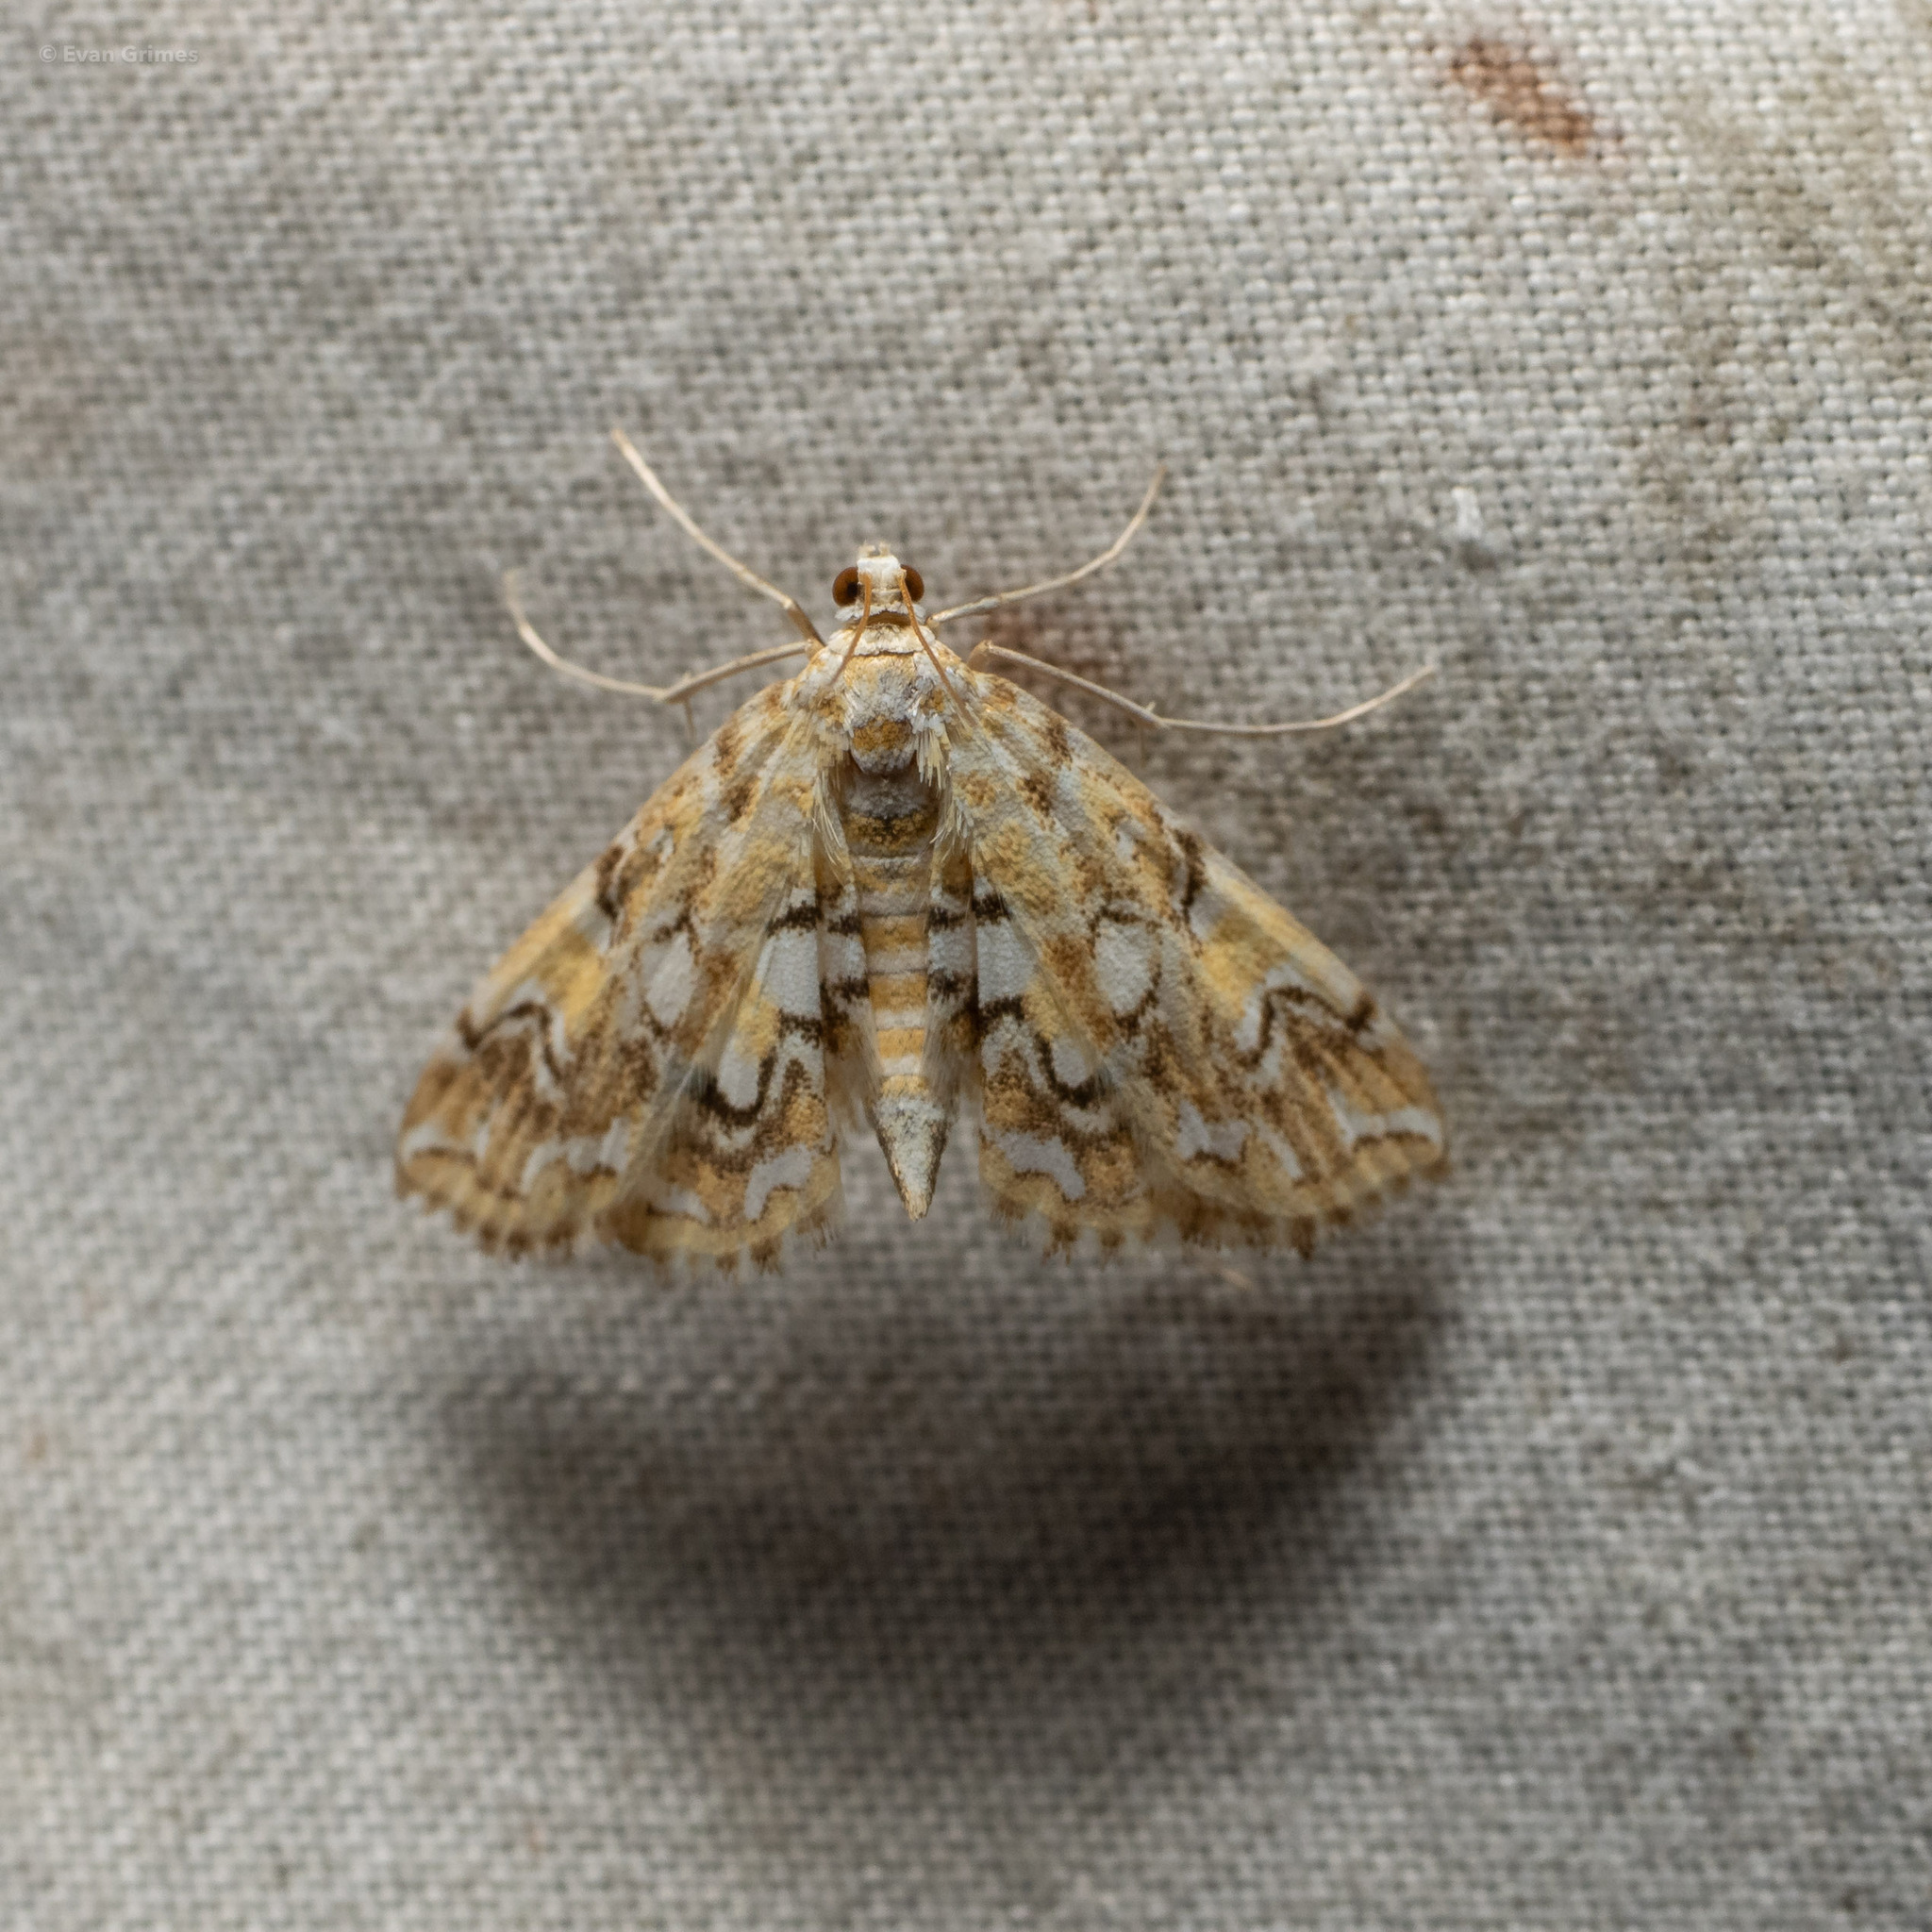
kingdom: Animalia
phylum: Arthropoda
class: Insecta
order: Lepidoptera
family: Crambidae
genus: Elophila
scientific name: Elophila icciusalis
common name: Pondside pyralid moth
